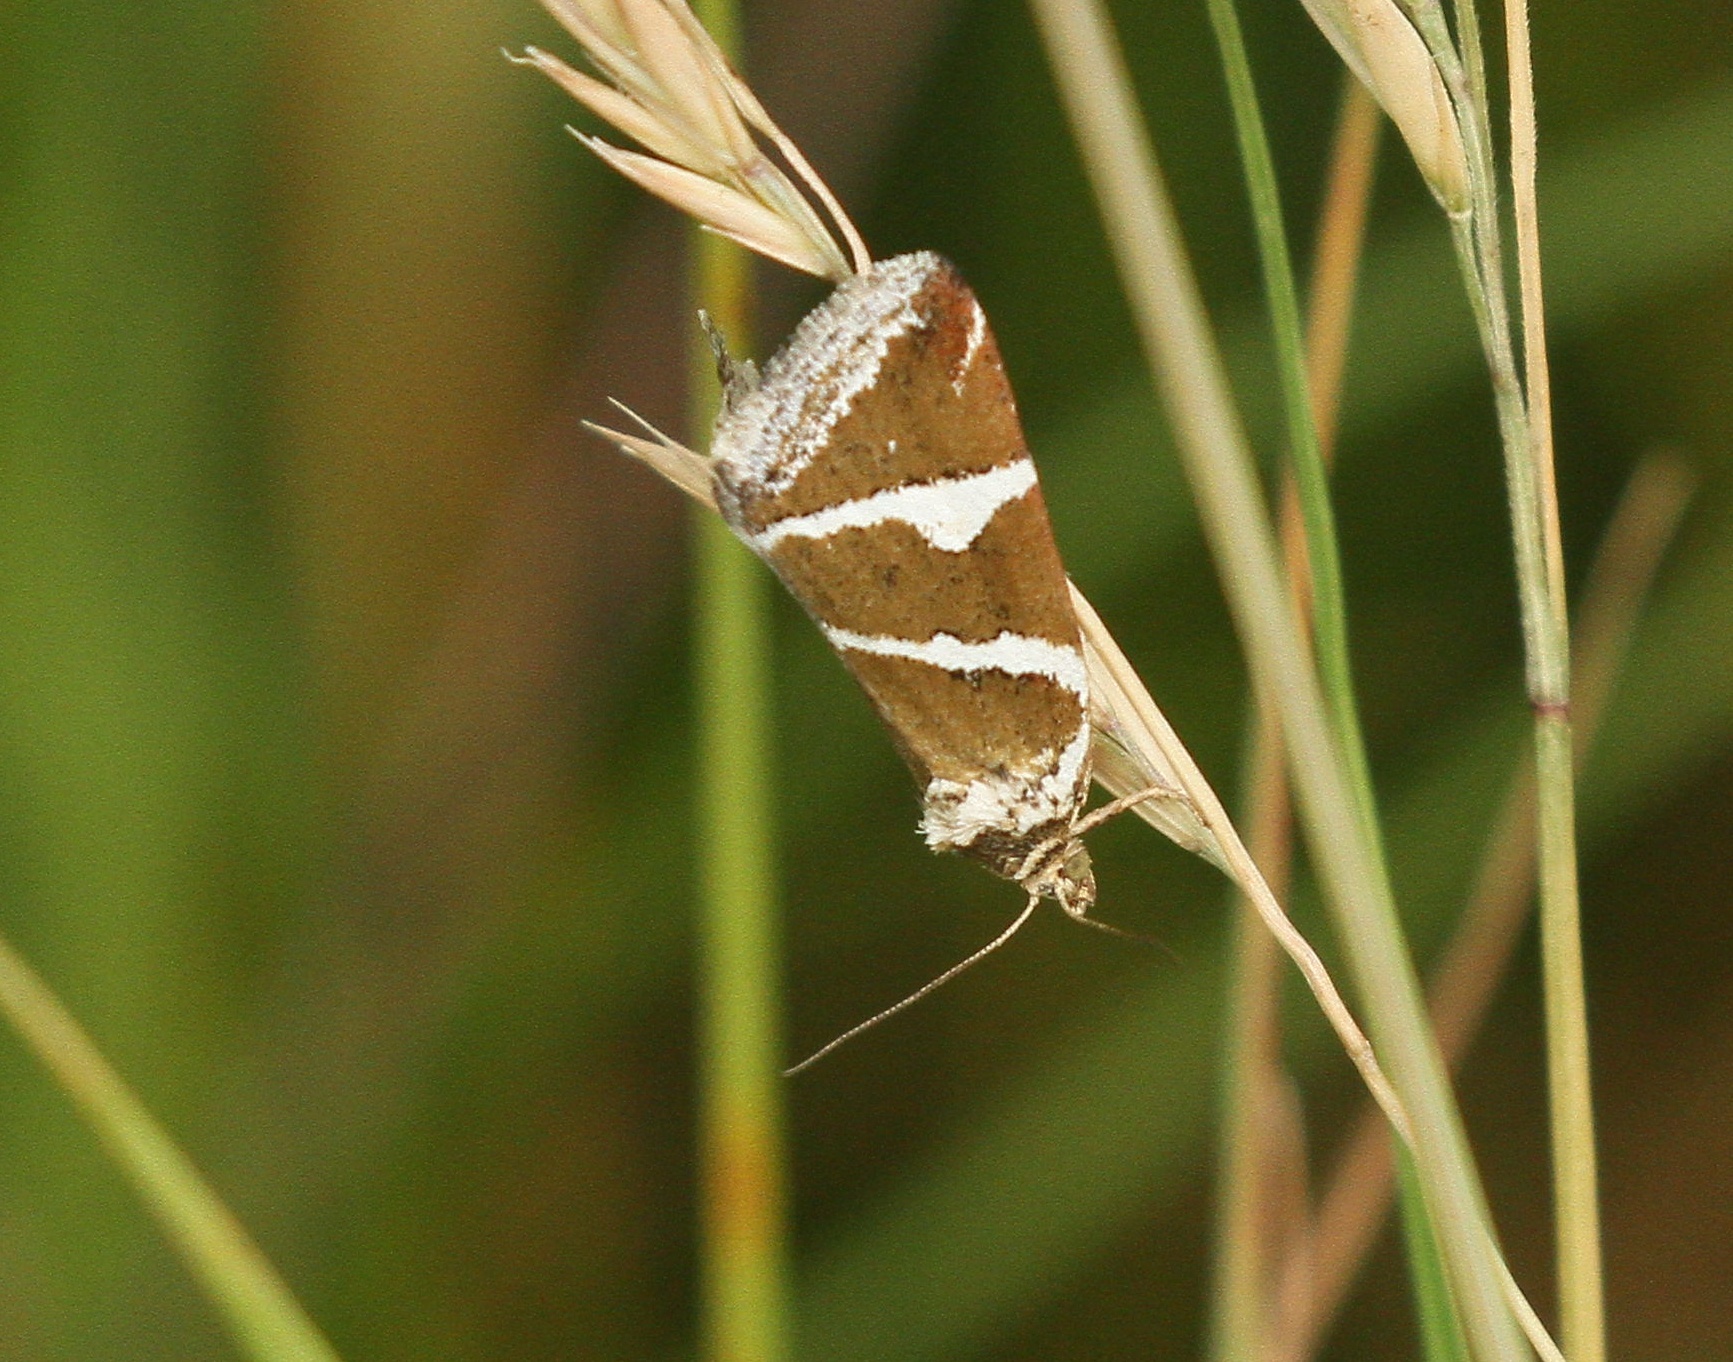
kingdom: Animalia
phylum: Arthropoda
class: Insecta
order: Lepidoptera
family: Noctuidae
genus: Deltote
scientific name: Deltote bankiana
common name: Silver barred
